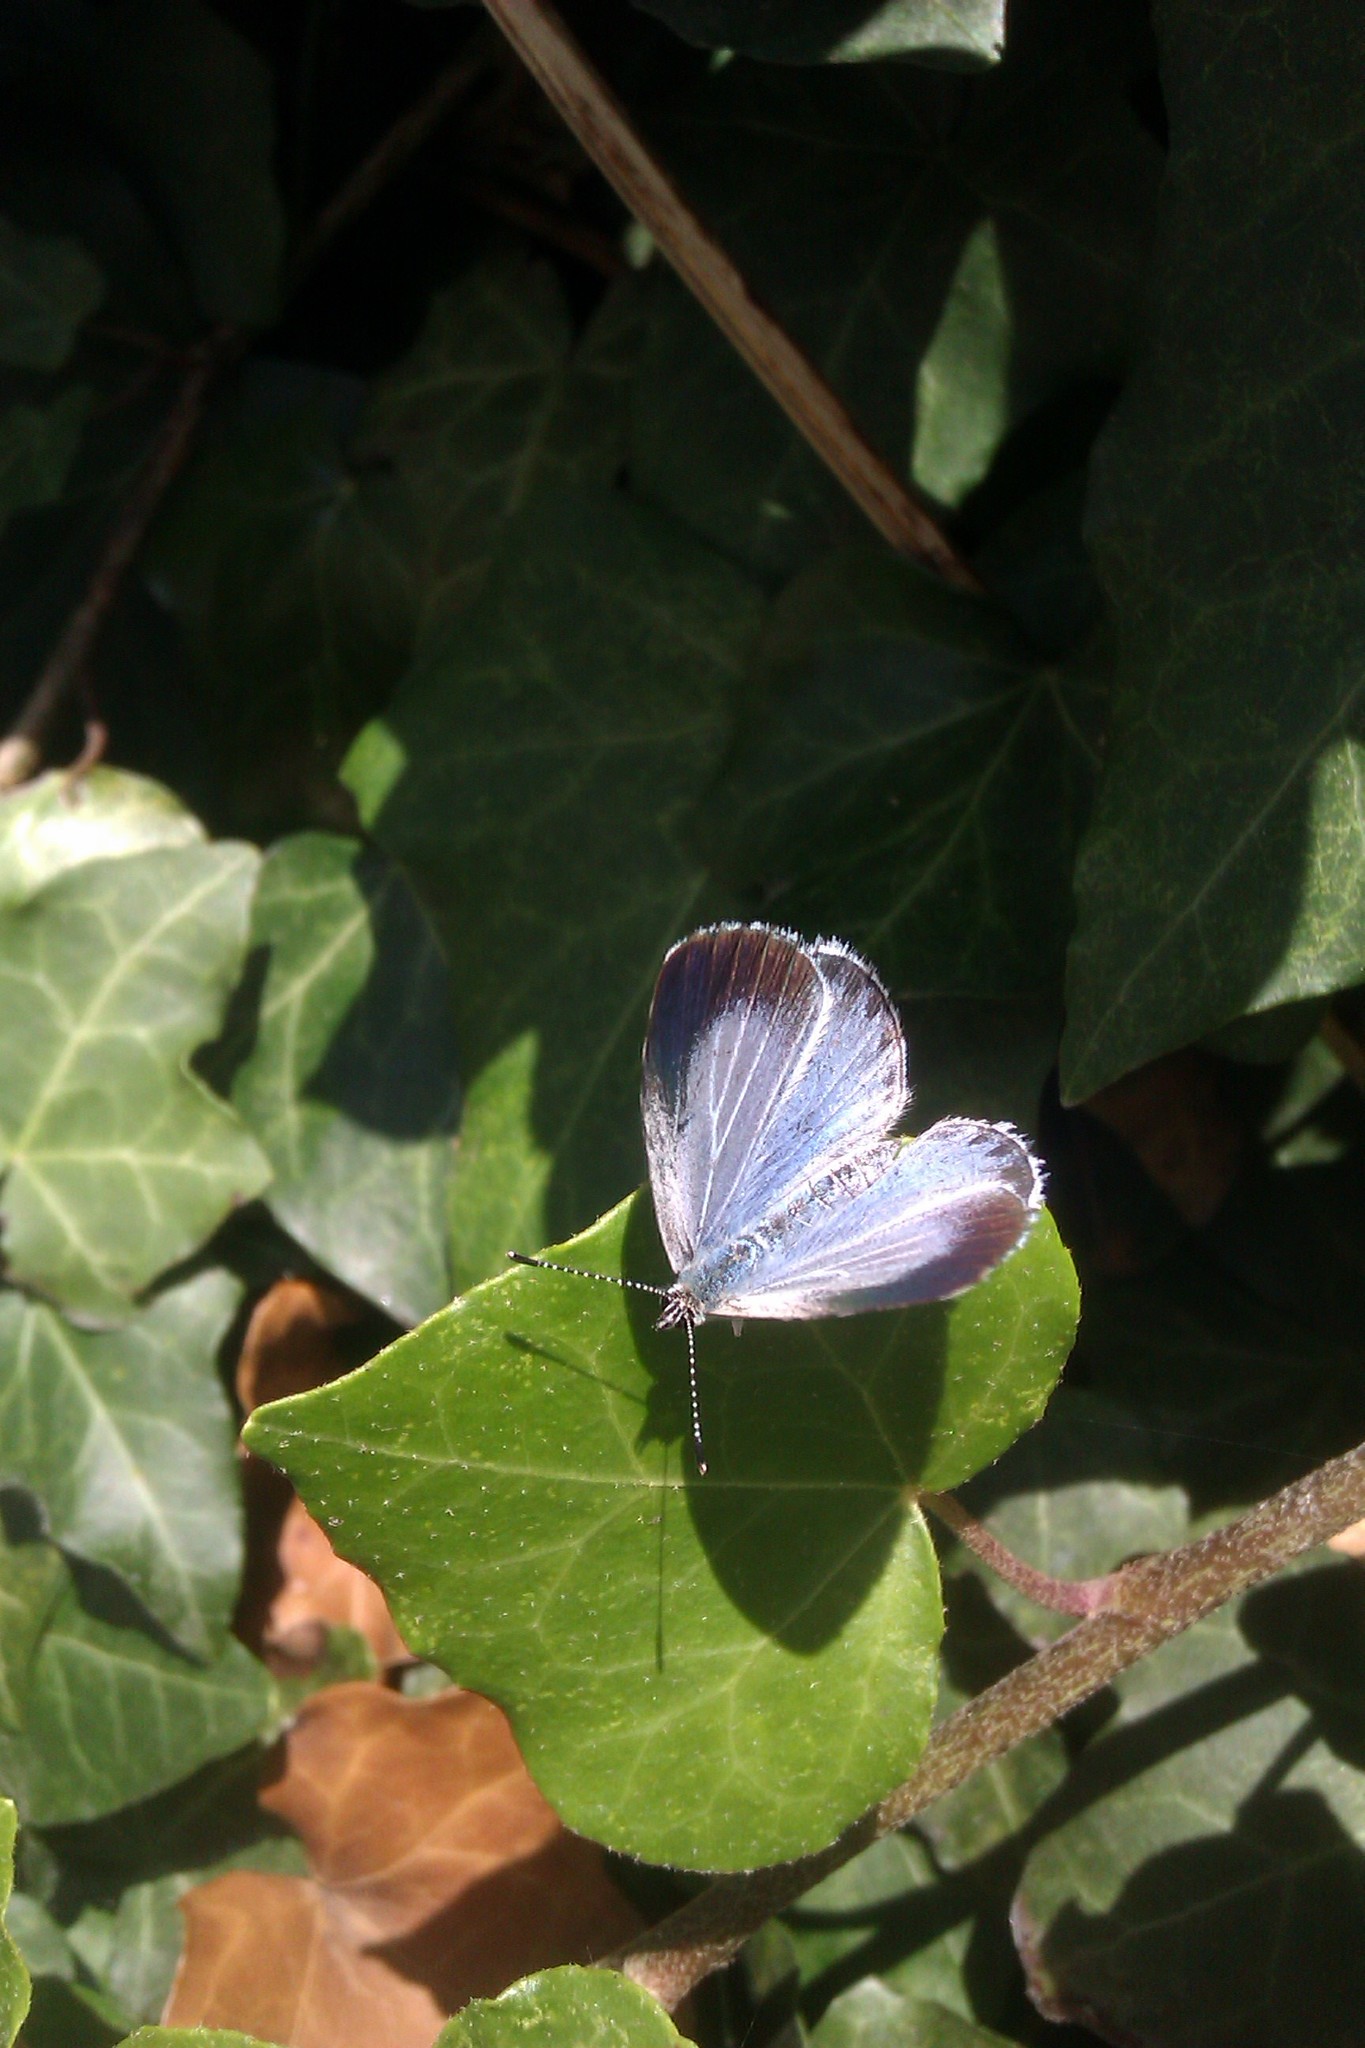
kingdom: Animalia
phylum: Arthropoda
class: Insecta
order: Lepidoptera
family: Lycaenidae
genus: Celastrina
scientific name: Celastrina argiolus
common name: Holly blue
